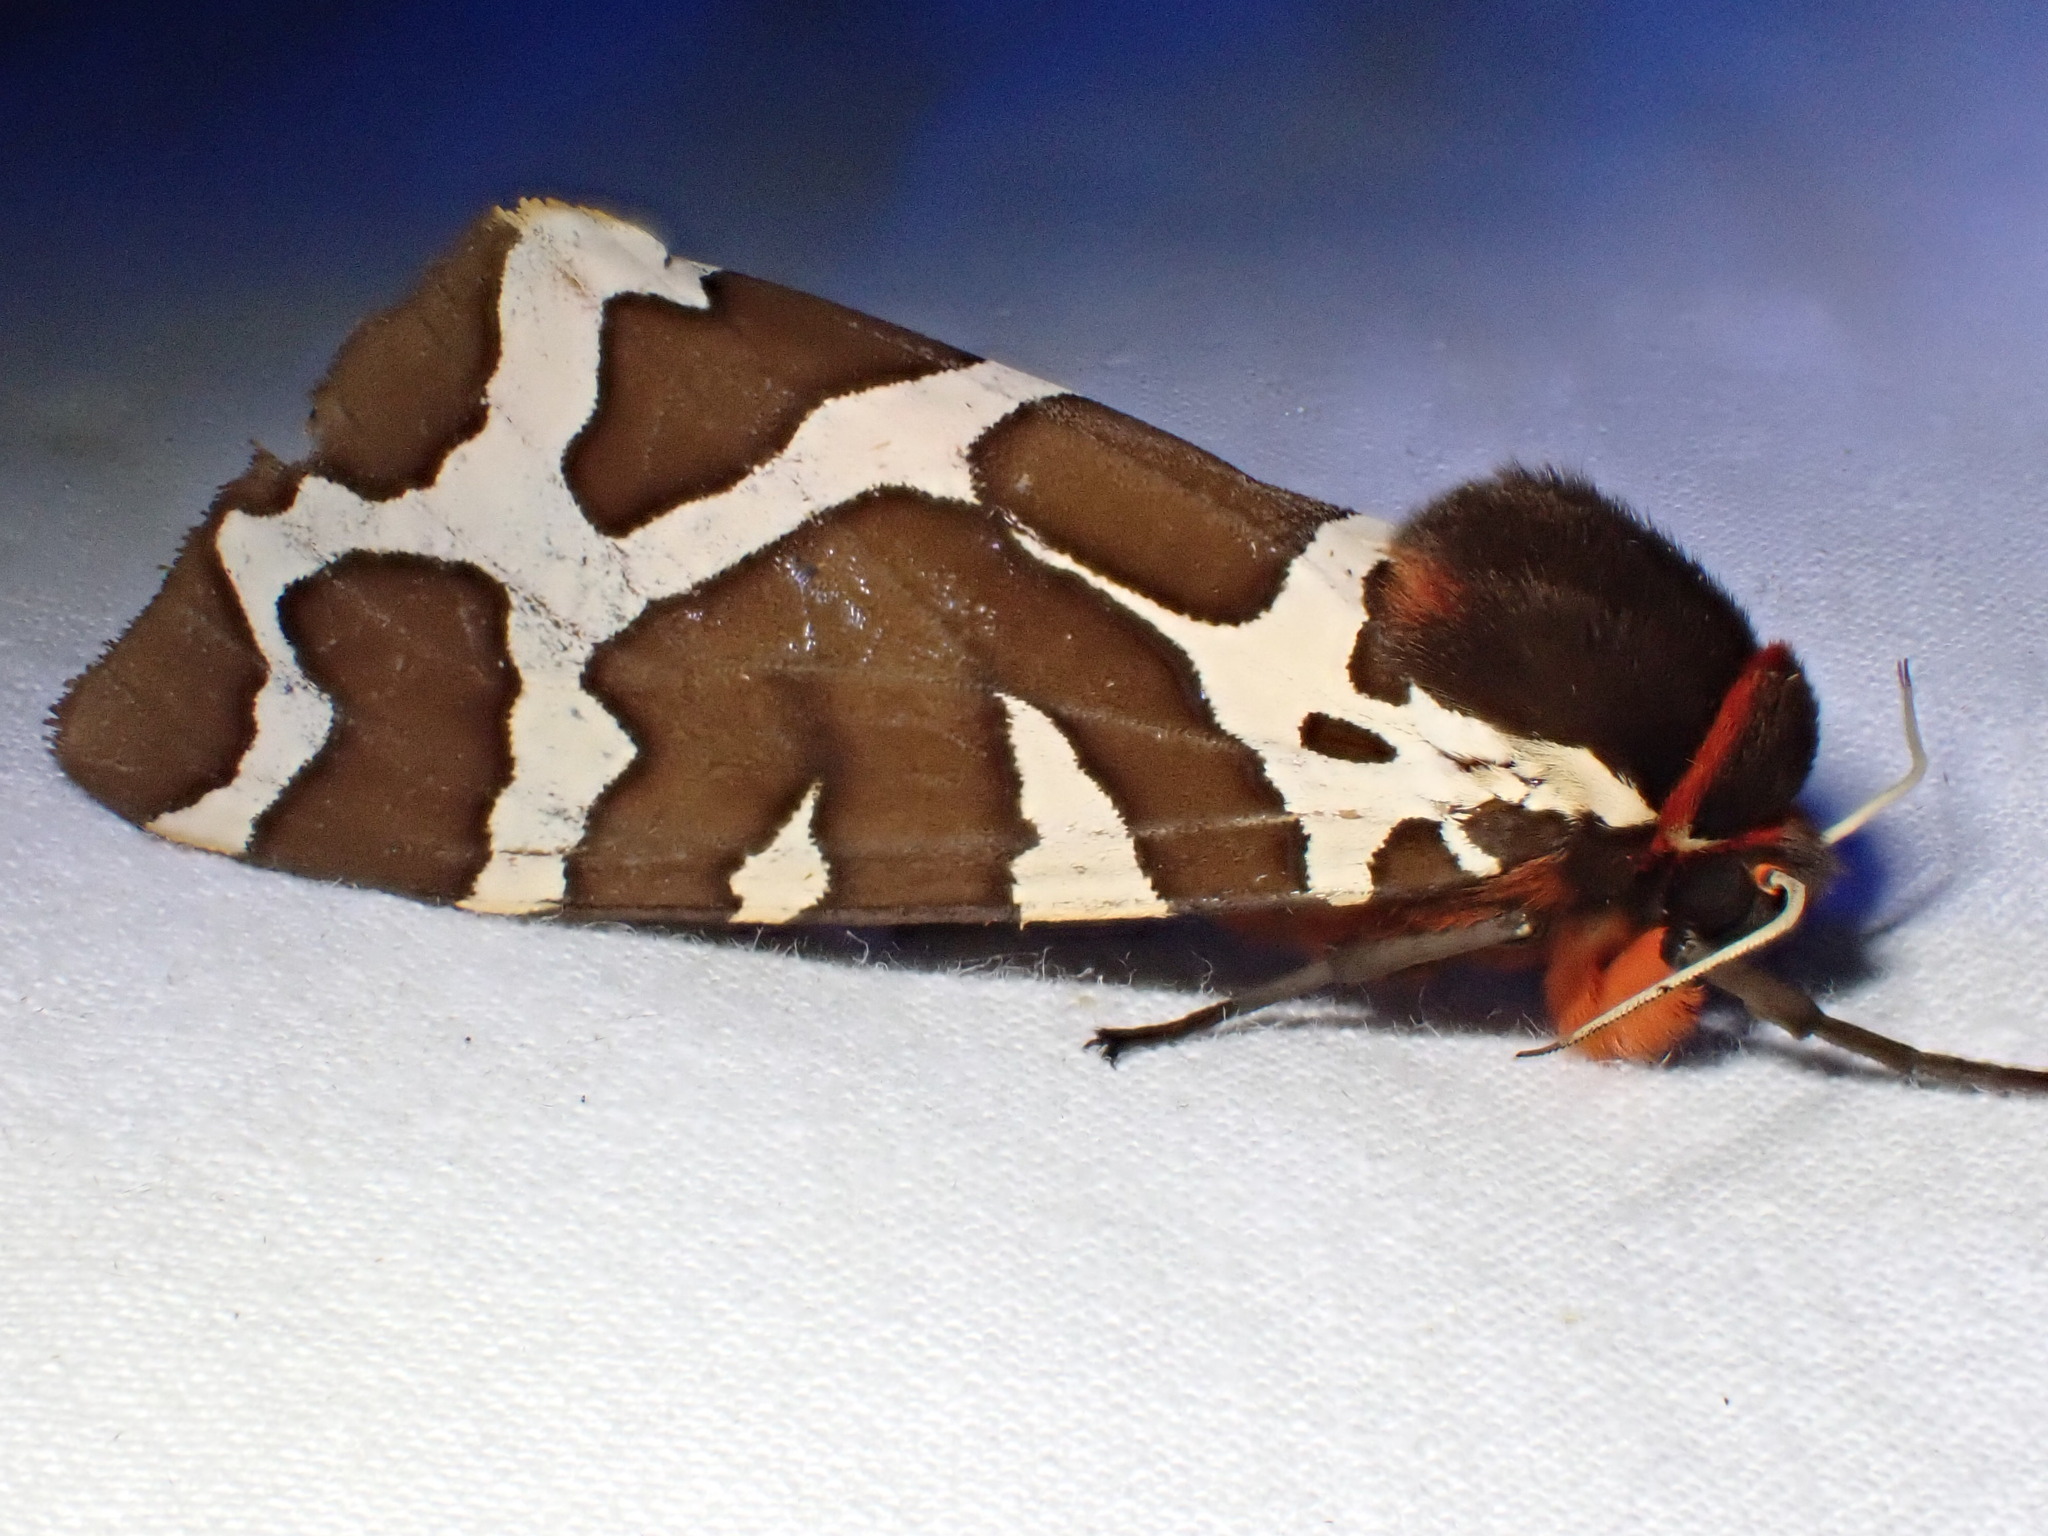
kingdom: Animalia
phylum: Arthropoda
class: Insecta
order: Lepidoptera
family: Erebidae
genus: Arctia
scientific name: Arctia caja
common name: Garden tiger
